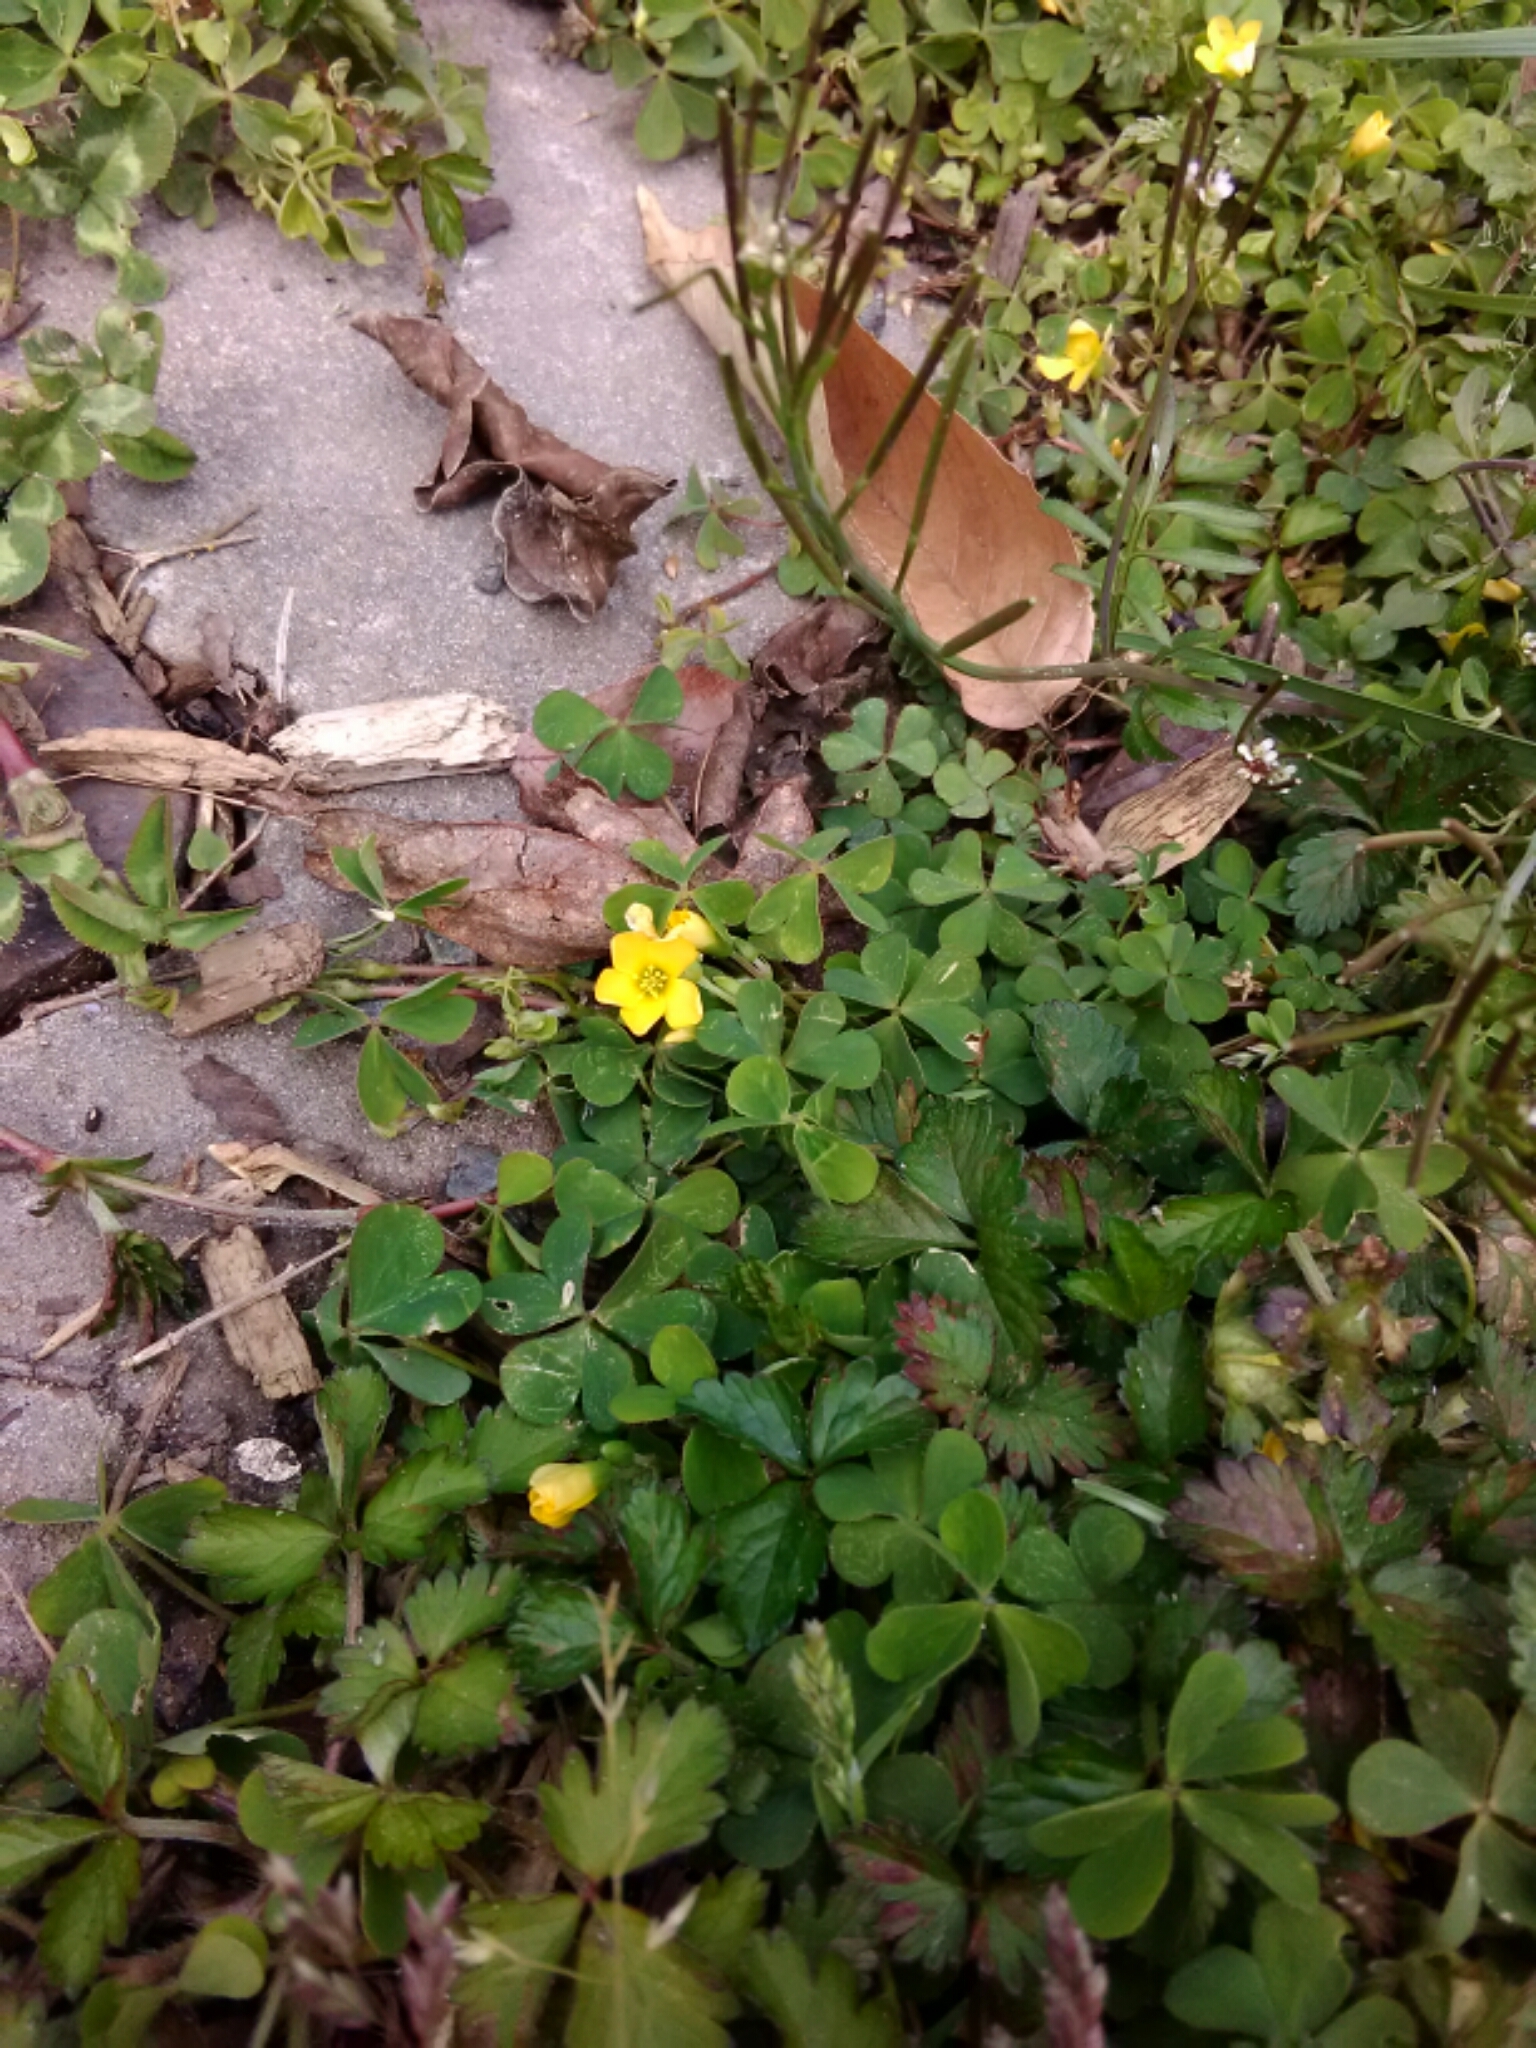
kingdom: Plantae
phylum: Tracheophyta
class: Magnoliopsida
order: Oxalidales
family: Oxalidaceae
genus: Oxalis
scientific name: Oxalis corniculata
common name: Procumbent yellow-sorrel
